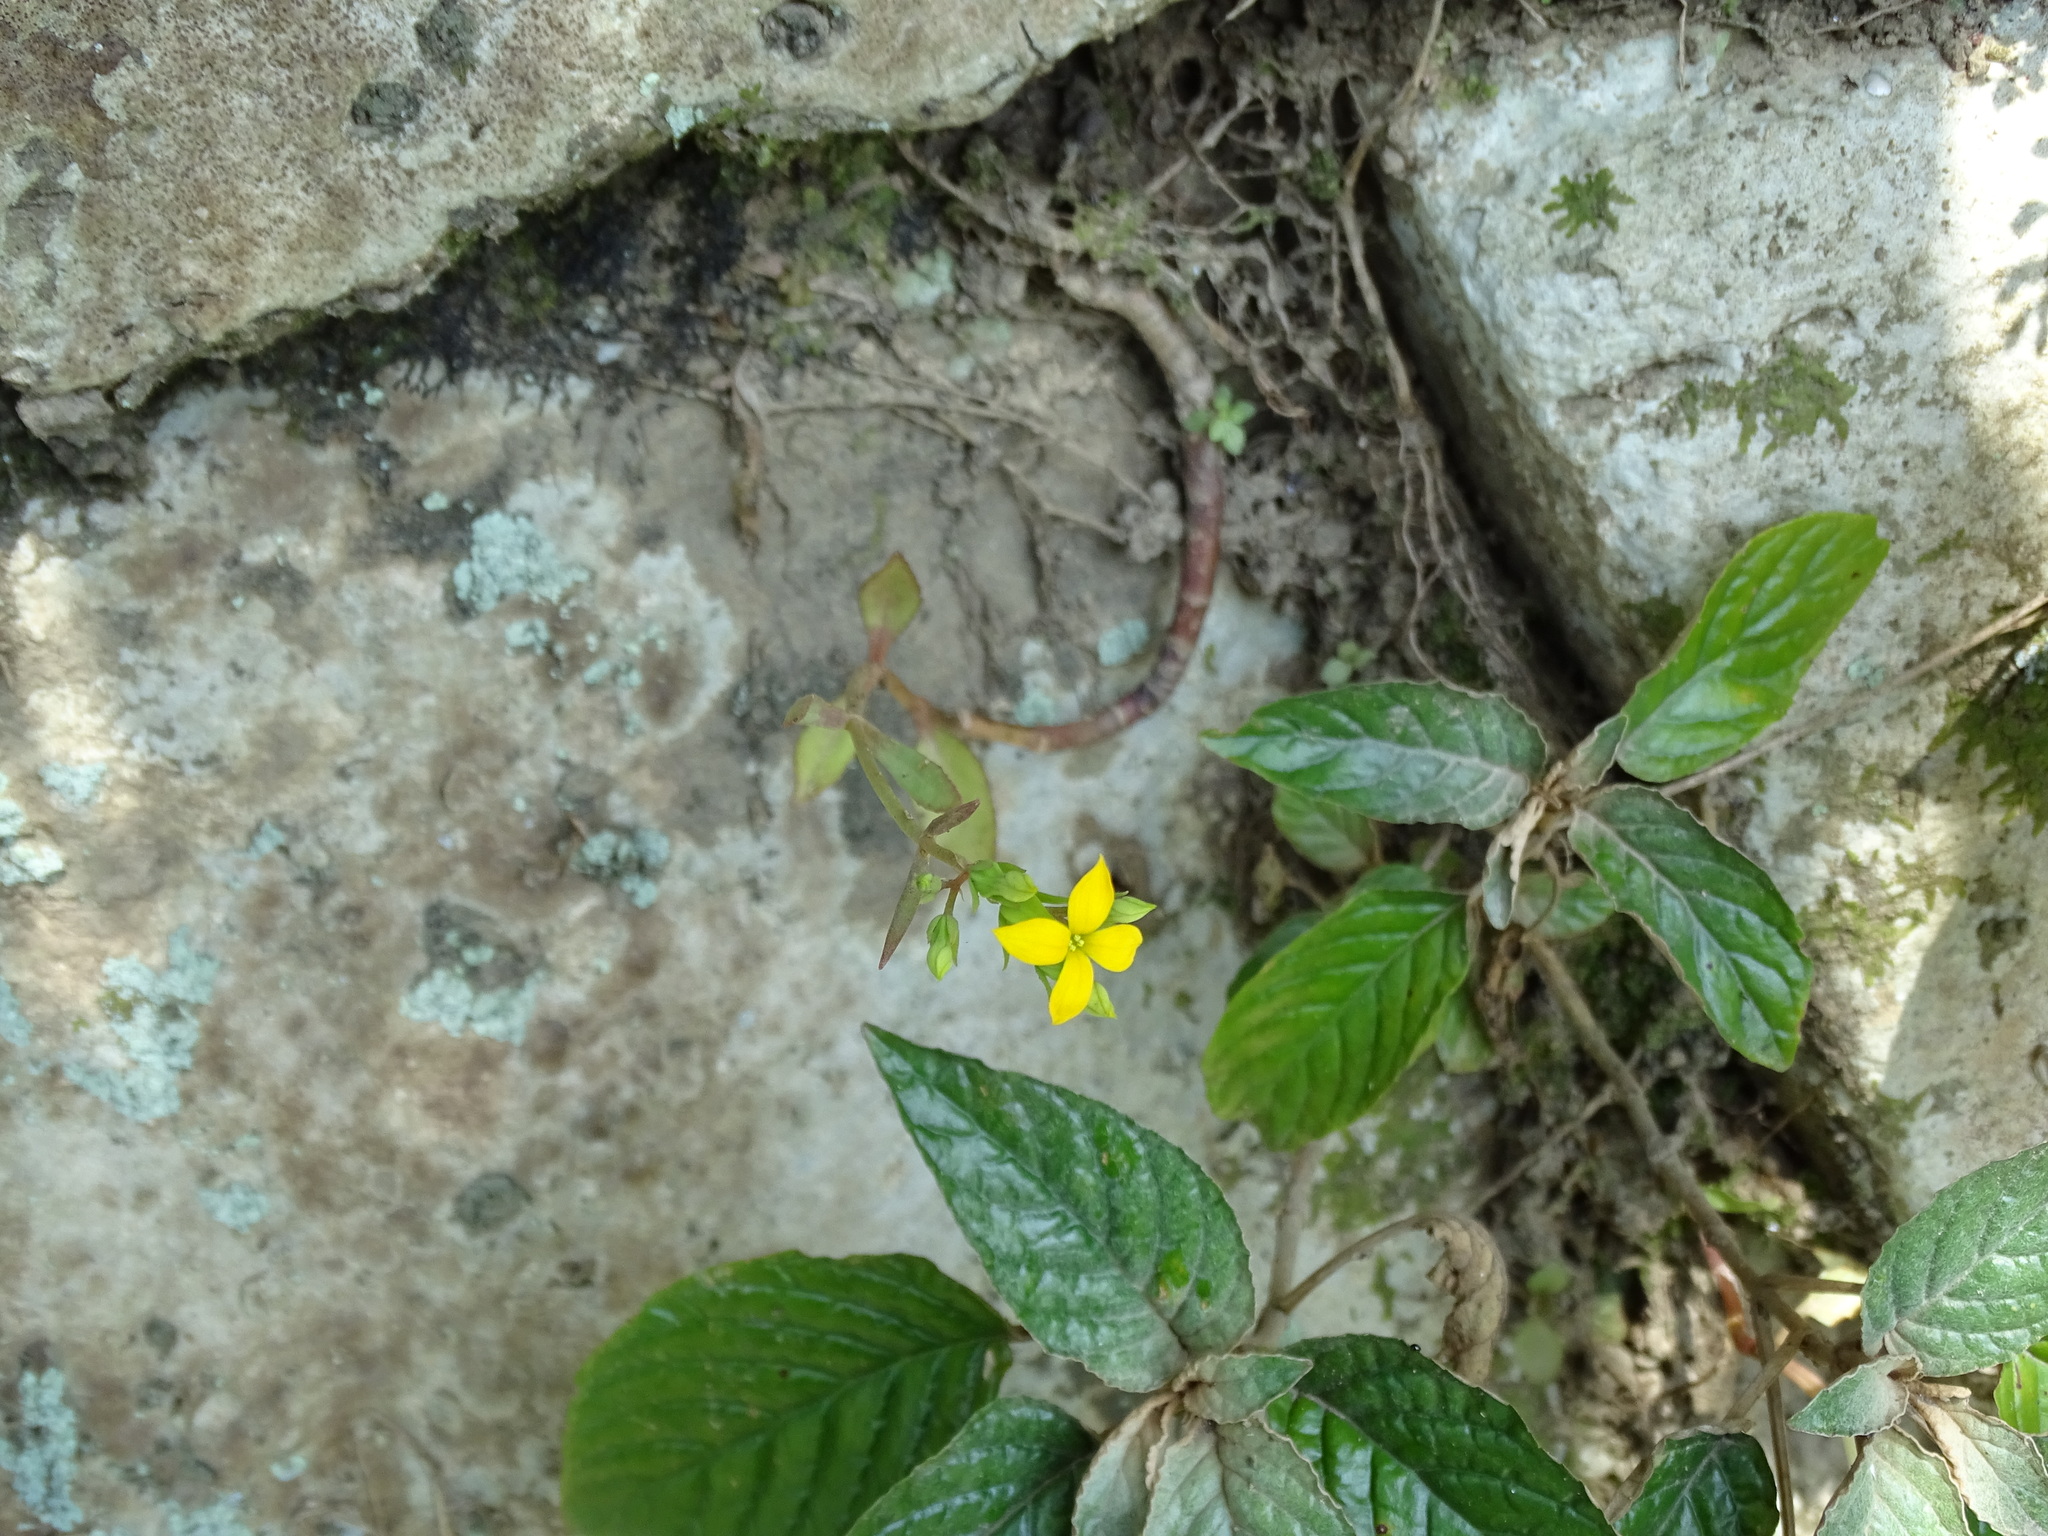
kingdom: Plantae
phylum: Tracheophyta
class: Magnoliopsida
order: Saxifragales
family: Crassulaceae
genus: Kalanchoe
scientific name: Kalanchoe integra
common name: Neverdie
